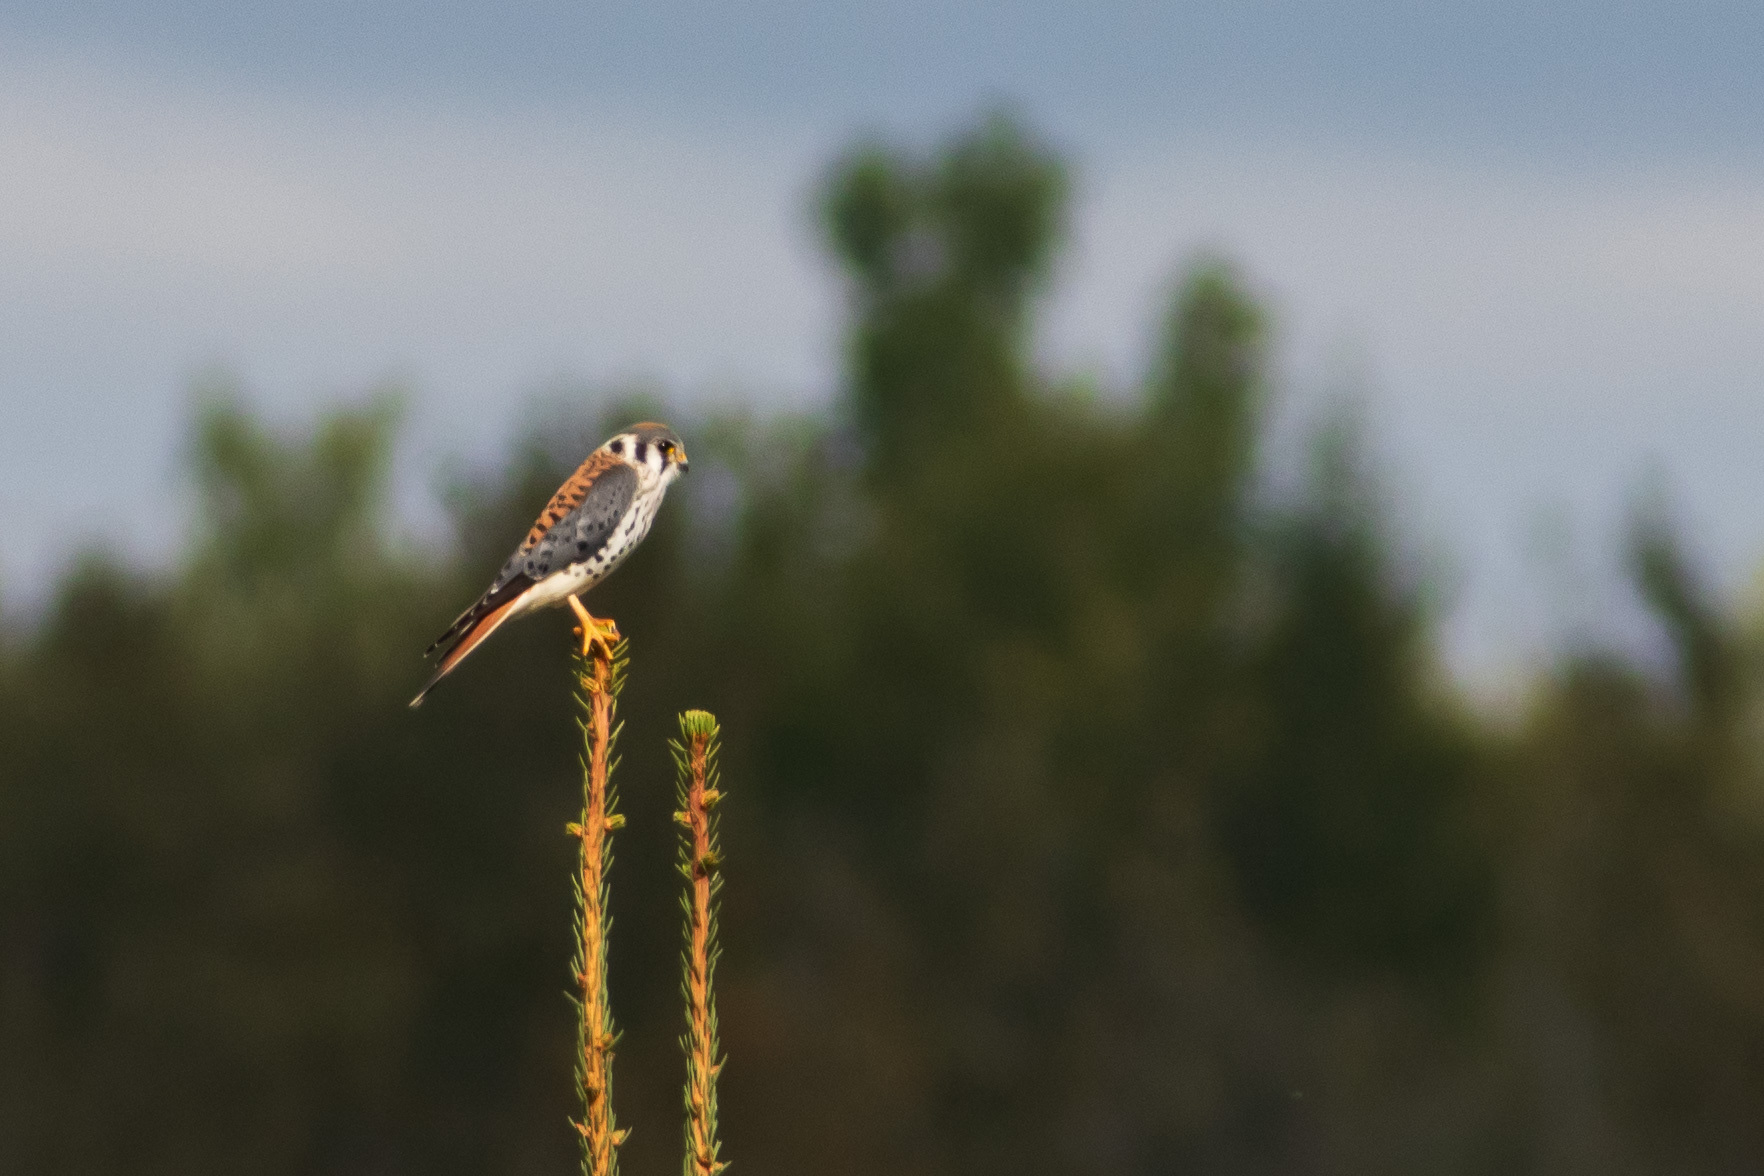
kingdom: Animalia
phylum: Chordata
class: Aves
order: Falconiformes
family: Falconidae
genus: Falco
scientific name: Falco sparverius
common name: American kestrel
